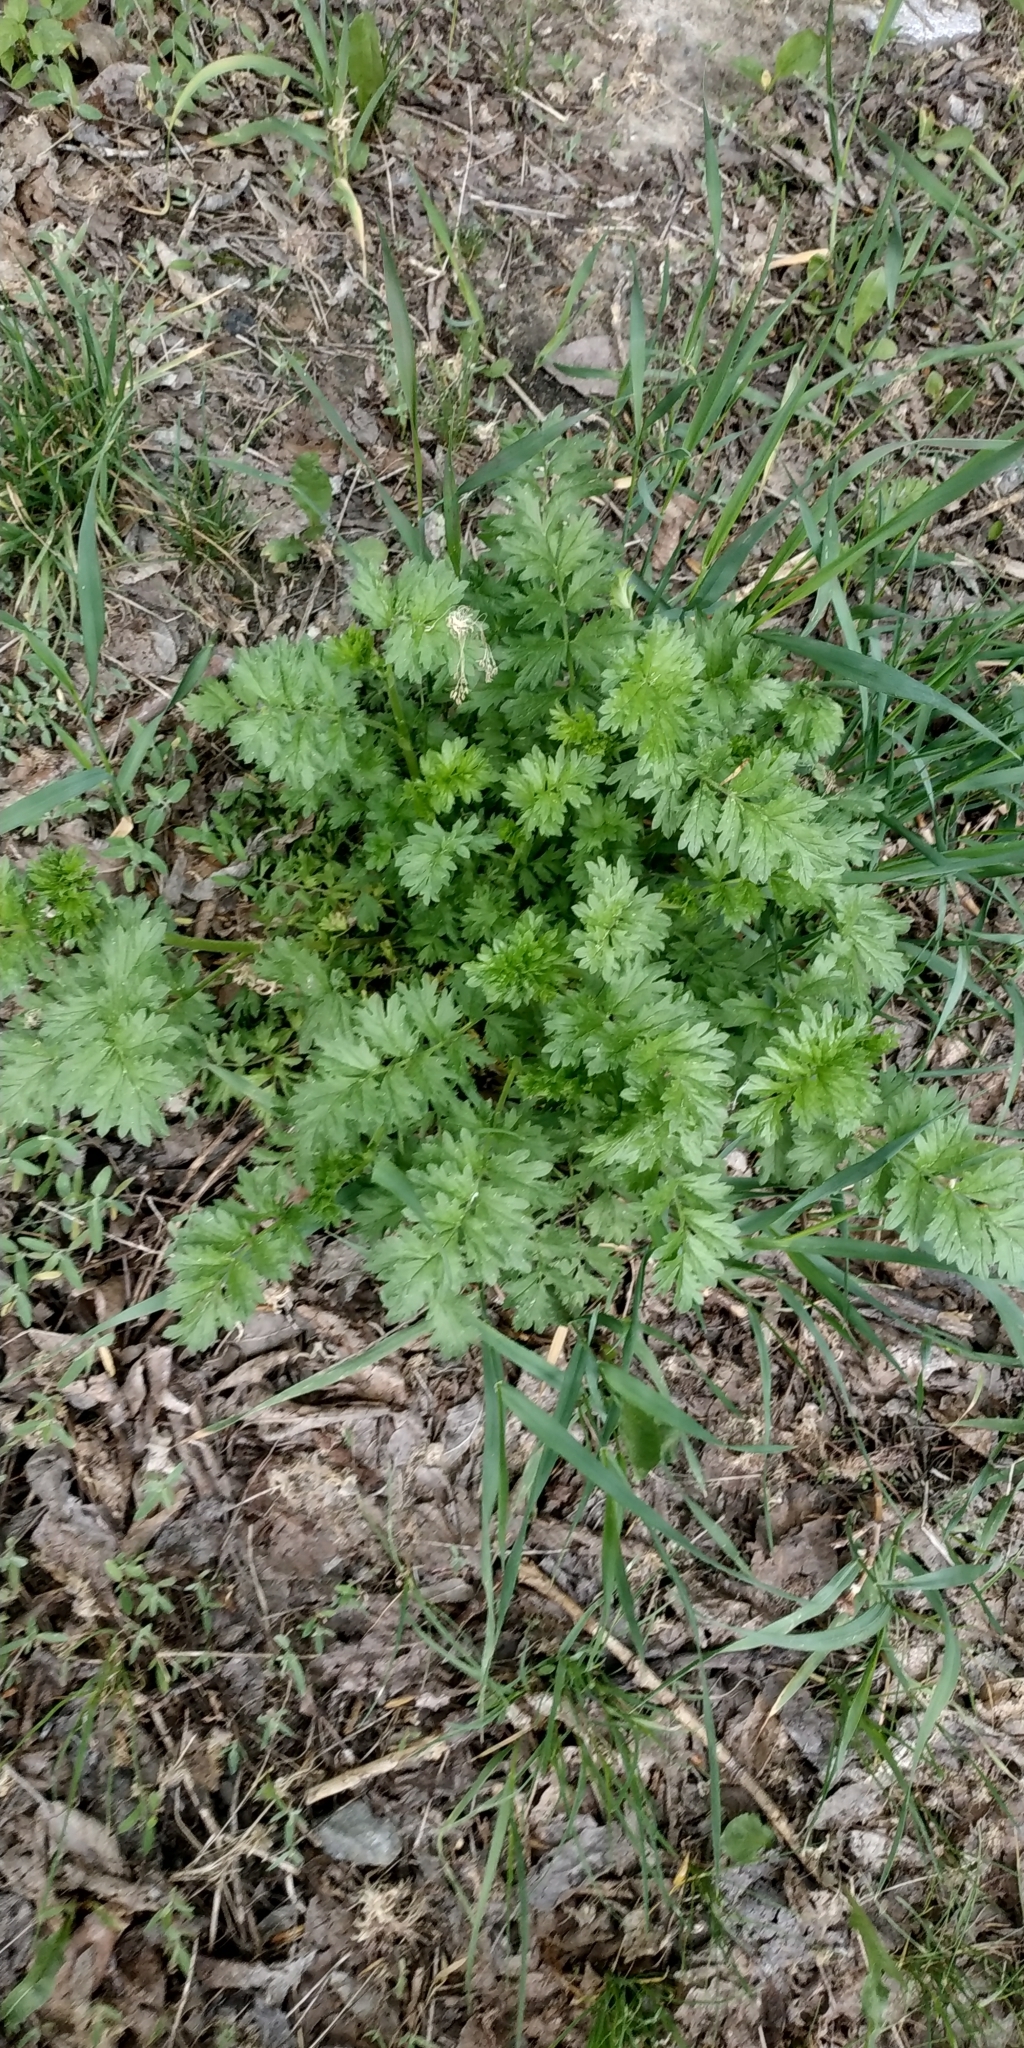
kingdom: Plantae
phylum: Tracheophyta
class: Magnoliopsida
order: Rosales
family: Rosaceae
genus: Potentilla
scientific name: Potentilla supina
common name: Prostrate cinquefoil
